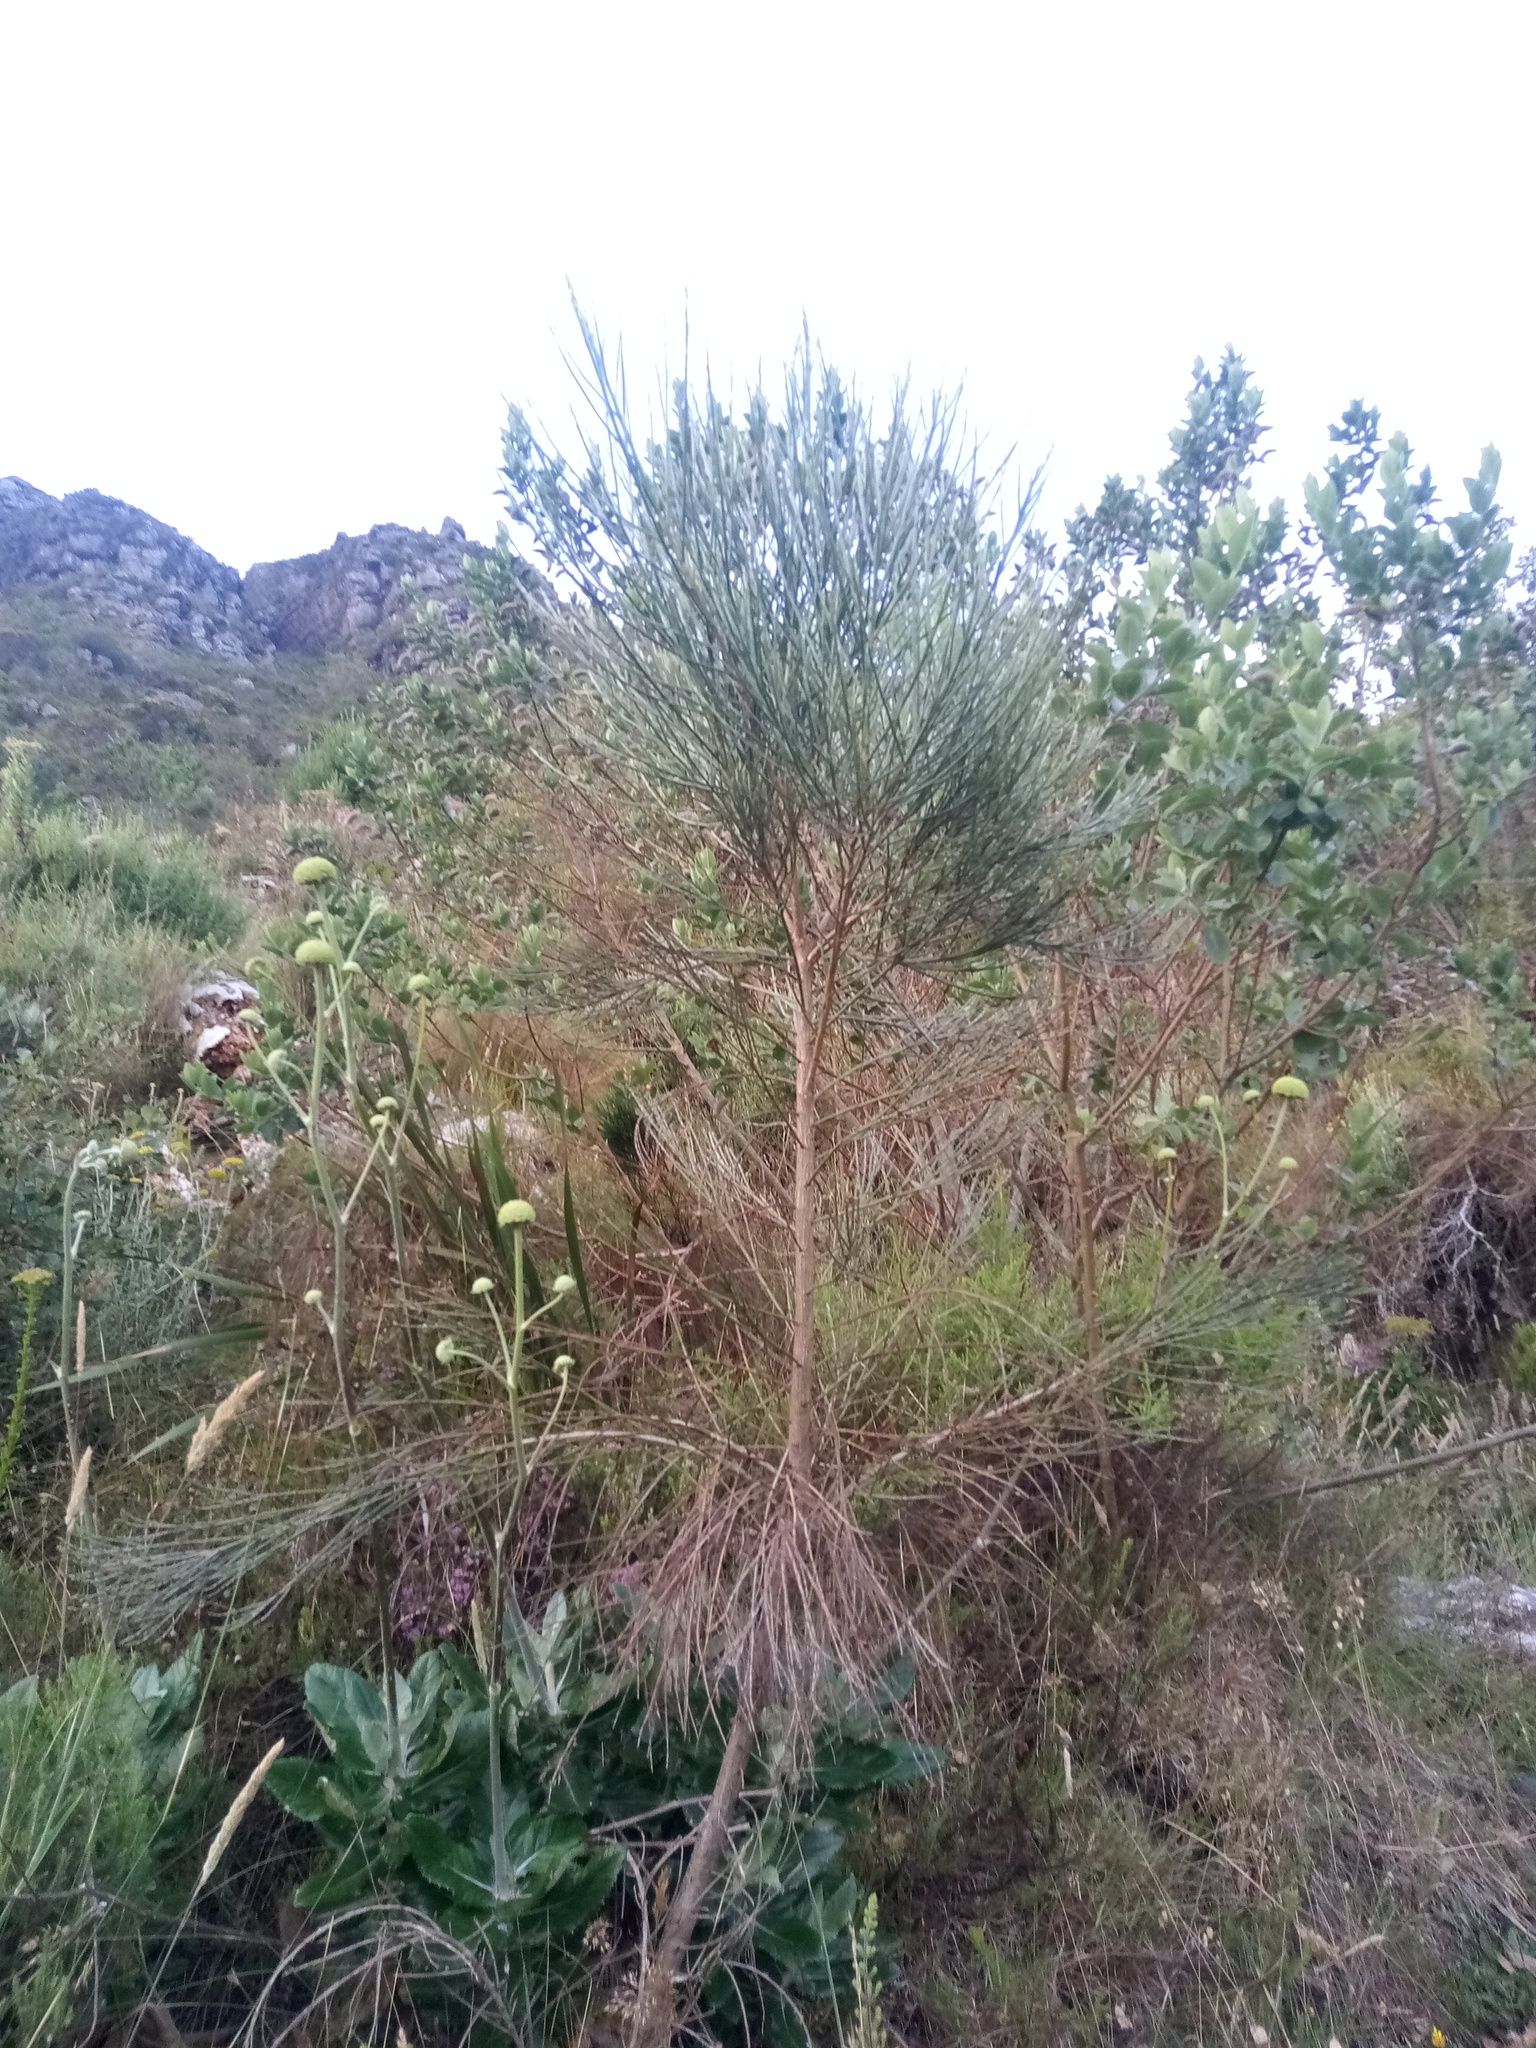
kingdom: Plantae
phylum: Tracheophyta
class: Magnoliopsida
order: Fabales
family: Fabaceae
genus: Psoralea
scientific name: Psoralea aphylla
